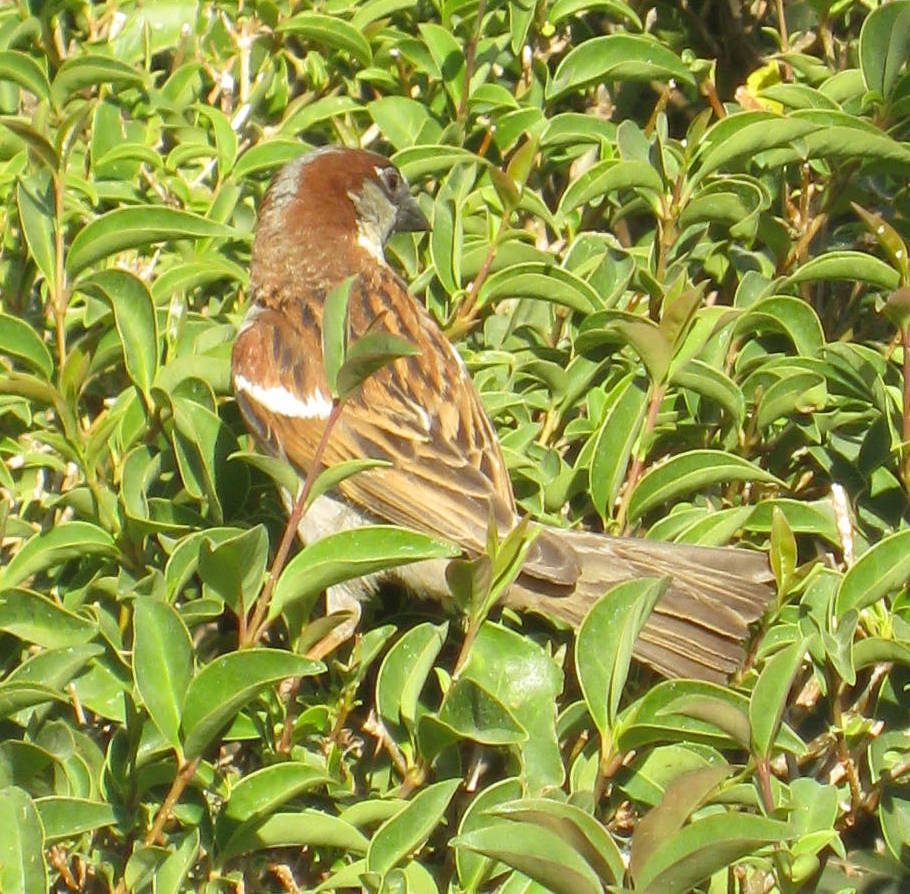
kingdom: Animalia
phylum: Chordata
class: Aves
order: Passeriformes
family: Passeridae
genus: Passer
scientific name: Passer domesticus
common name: House sparrow
